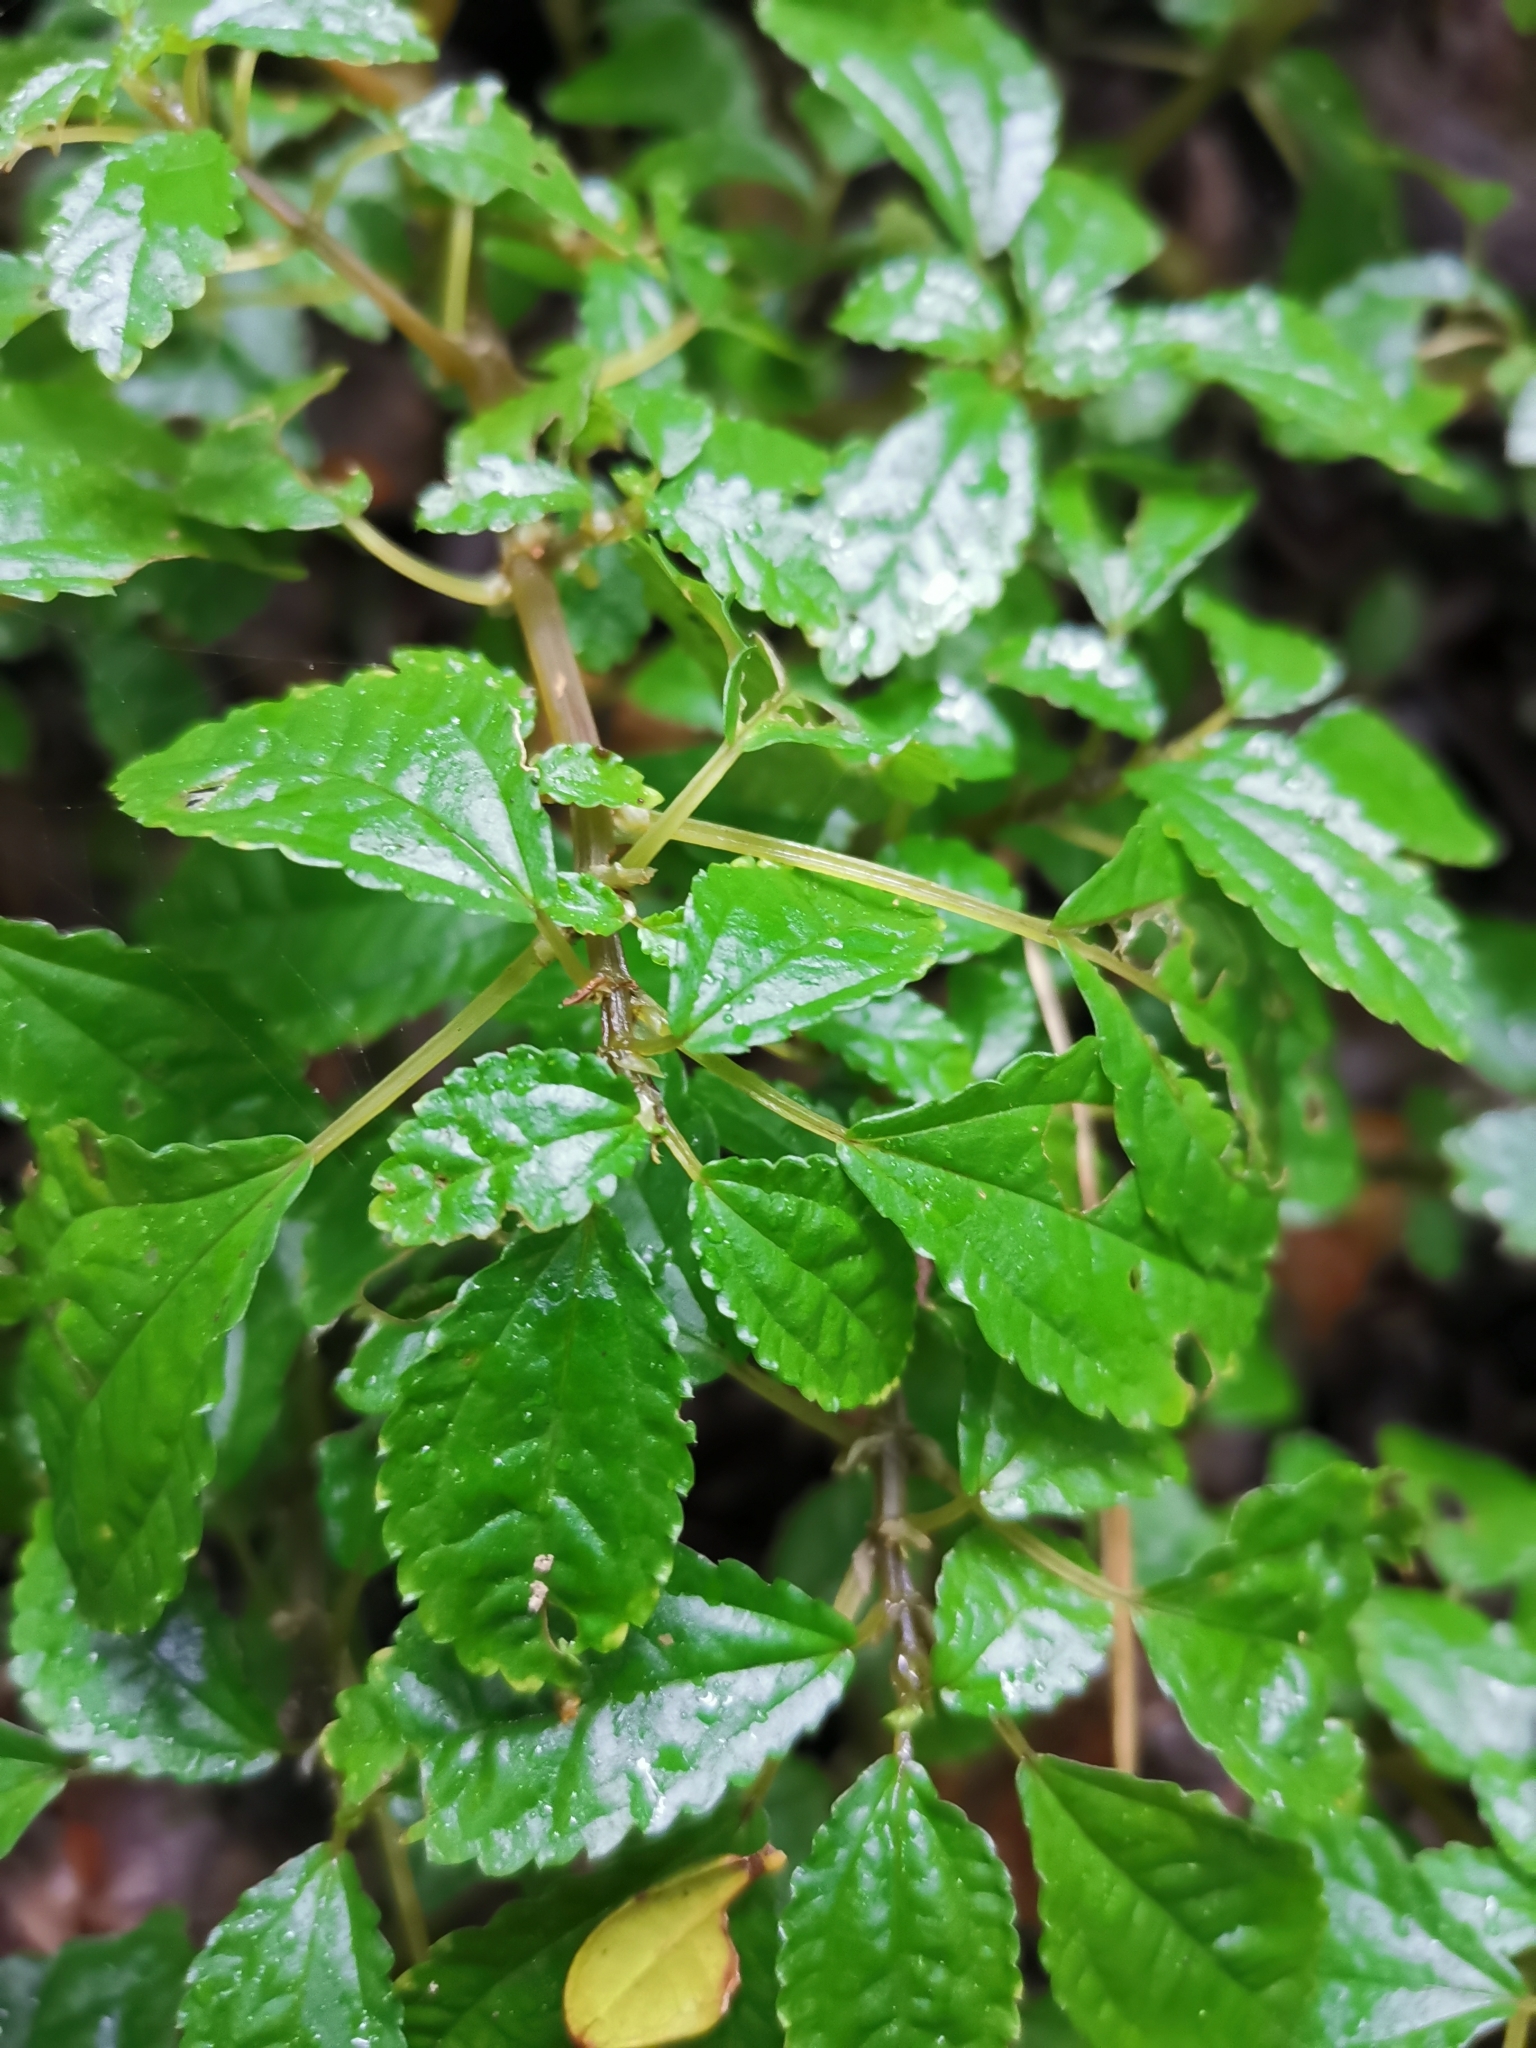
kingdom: Plantae
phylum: Tracheophyta
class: Magnoliopsida
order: Rosales
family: Urticaceae
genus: Pilea
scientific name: Pilea elliptica
